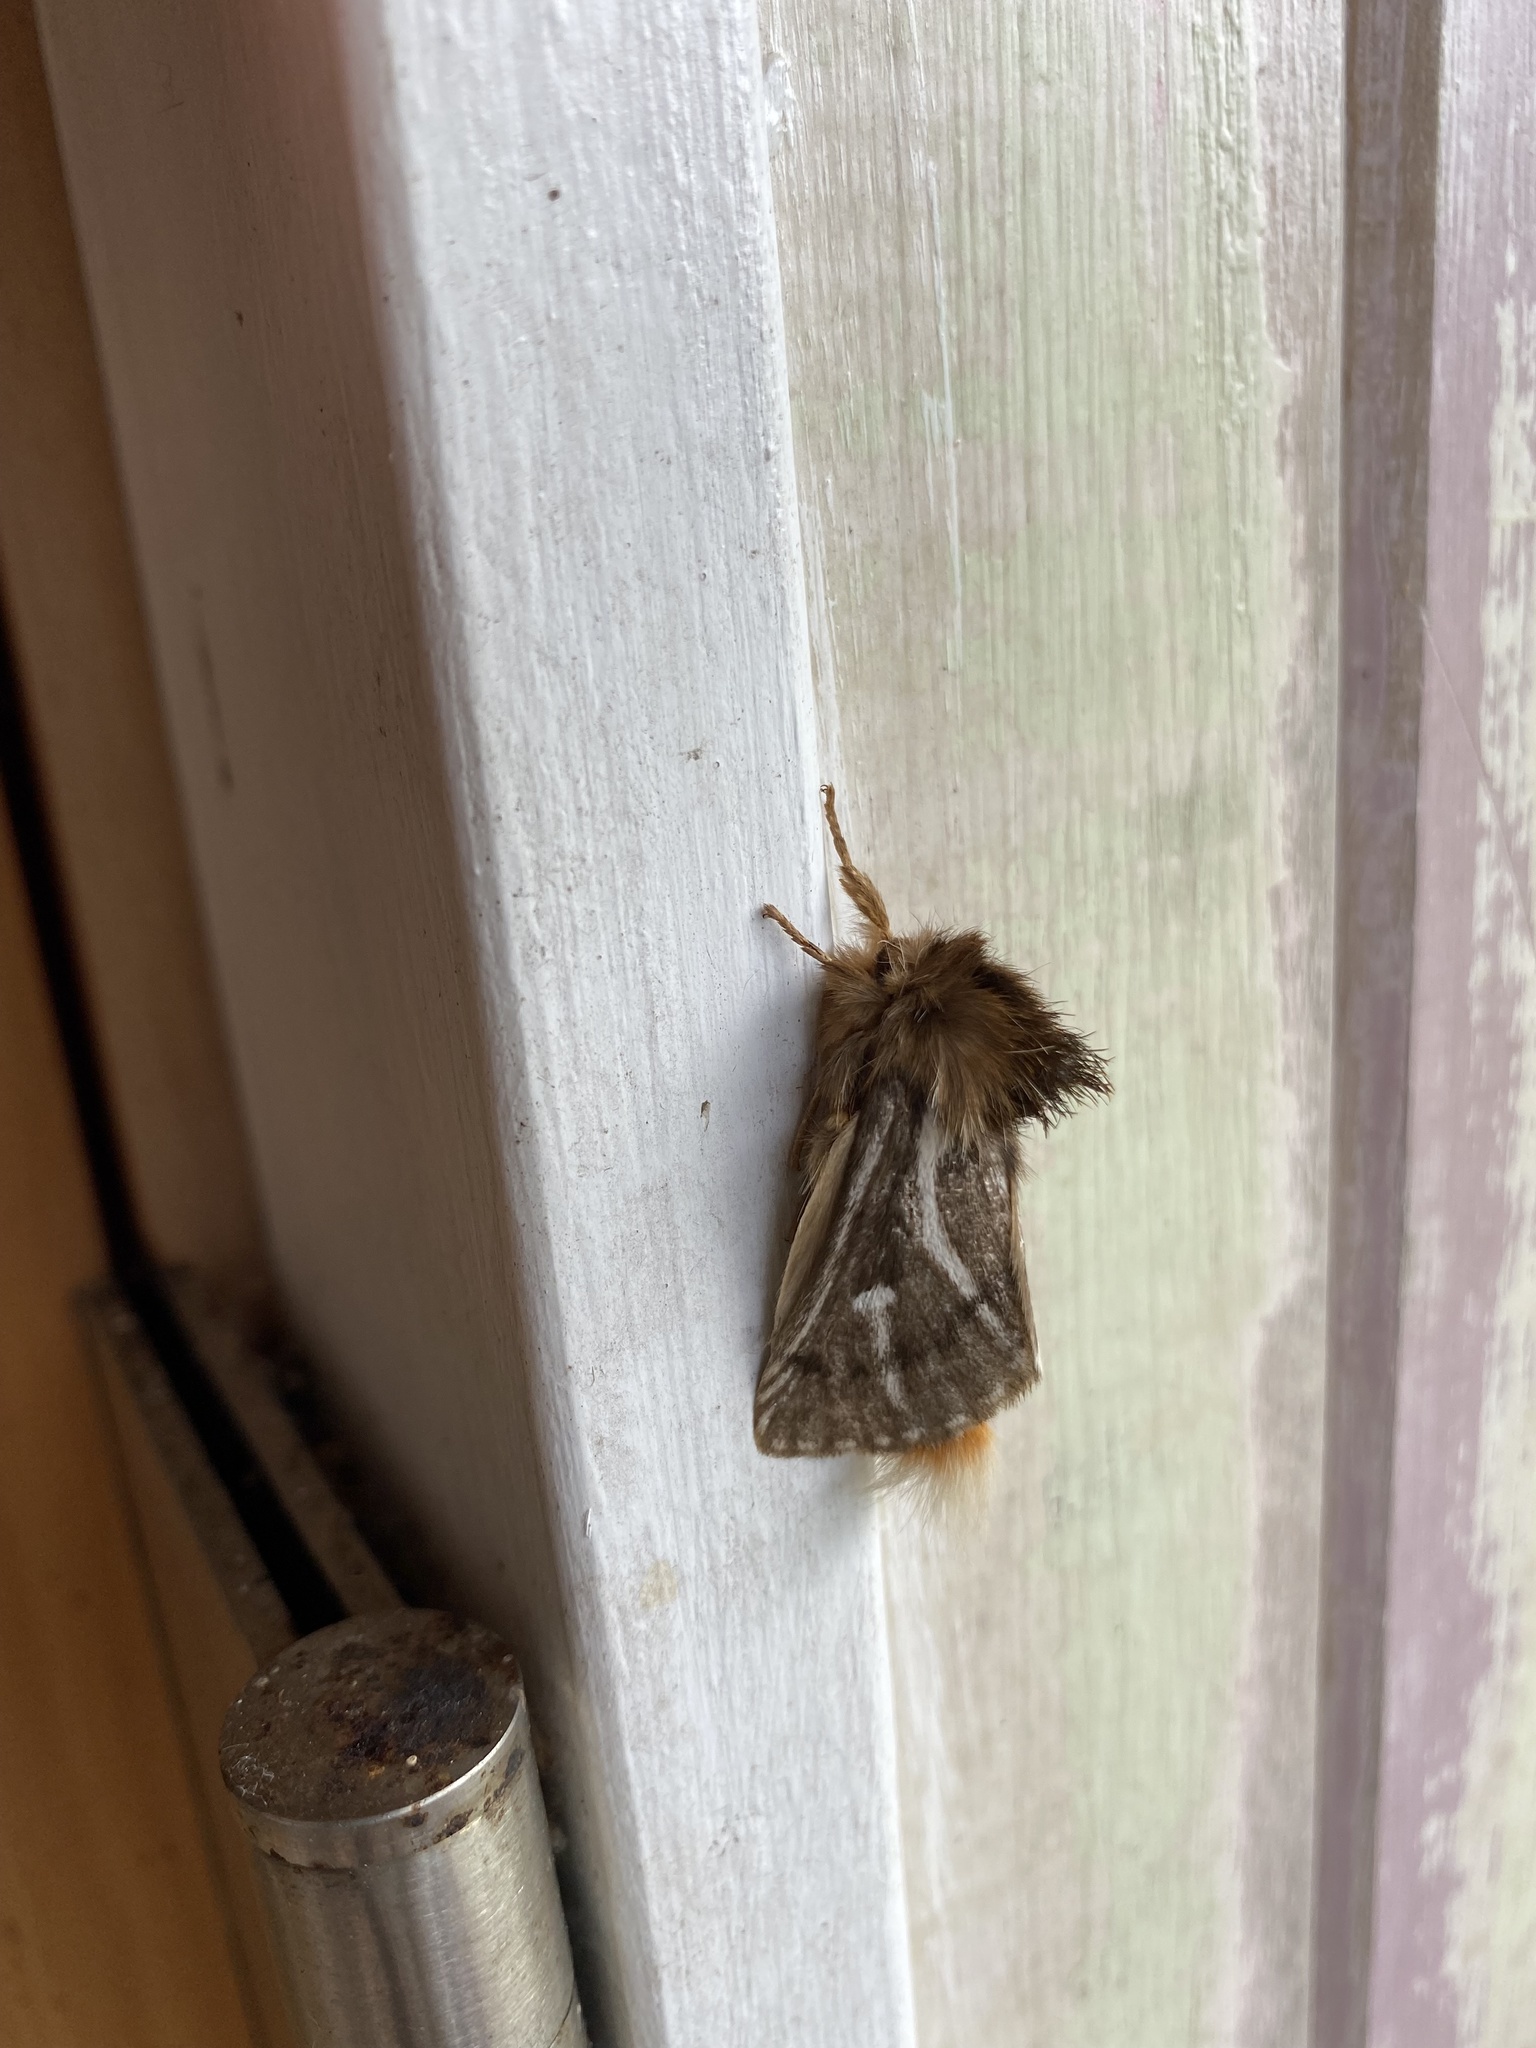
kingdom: Animalia
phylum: Arthropoda
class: Insecta
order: Lepidoptera
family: Notodontidae
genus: Ochrogaster
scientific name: Ochrogaster lunifer
